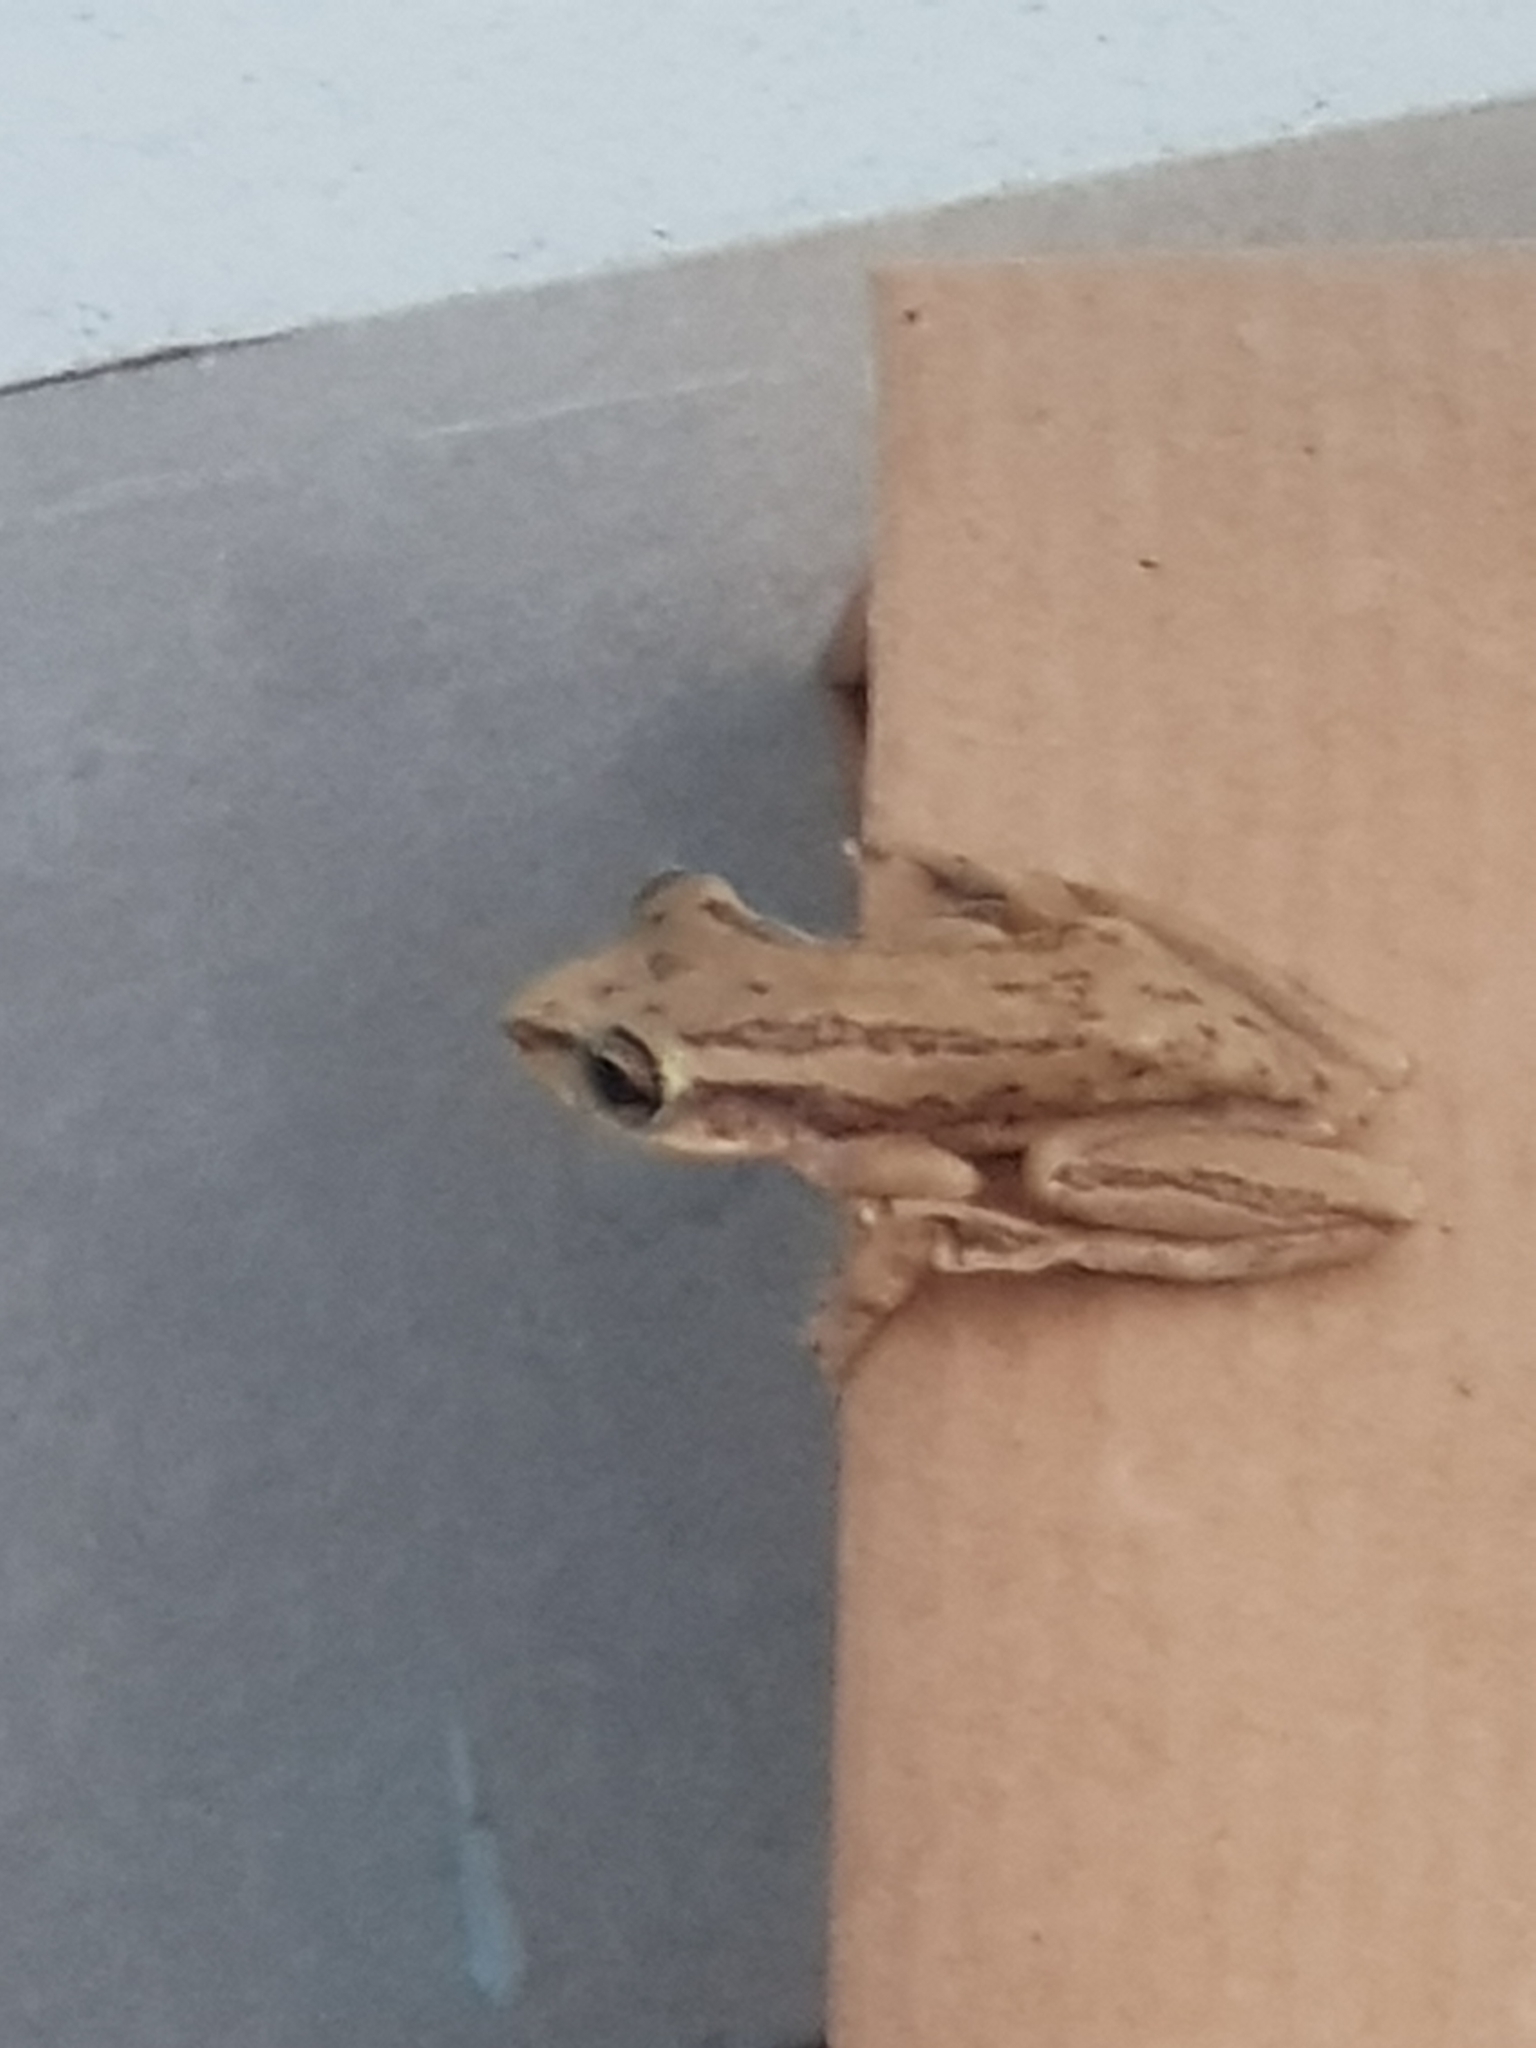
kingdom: Animalia
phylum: Chordata
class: Amphibia
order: Anura
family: Hylidae
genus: Scinax
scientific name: Scinax altae
